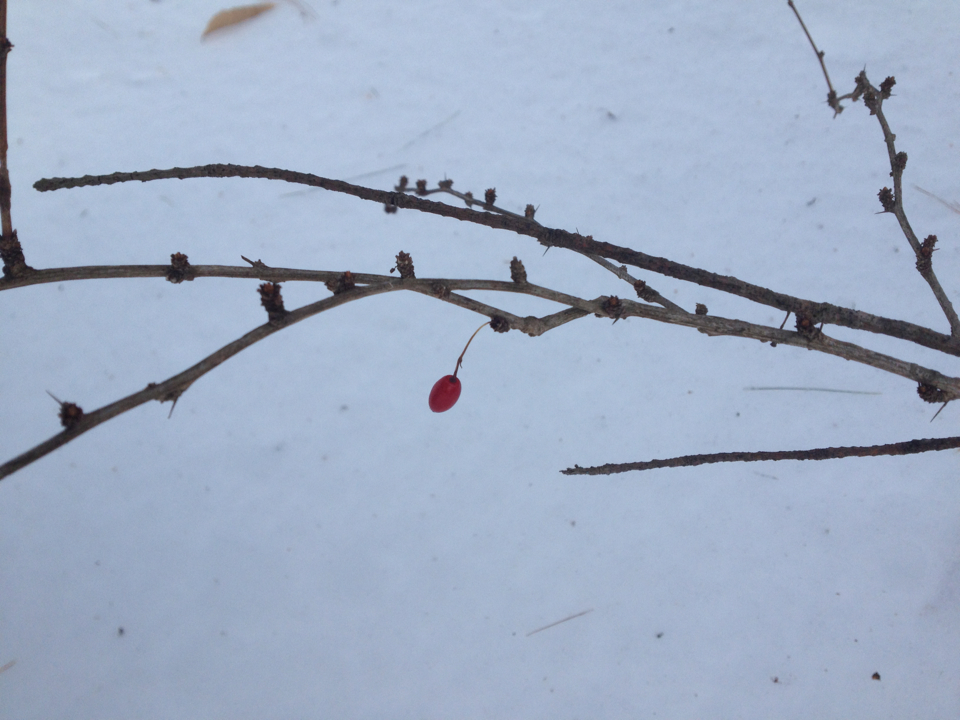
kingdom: Plantae
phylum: Tracheophyta
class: Magnoliopsida
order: Ranunculales
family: Berberidaceae
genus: Berberis
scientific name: Berberis thunbergii
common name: Japanese barberry
